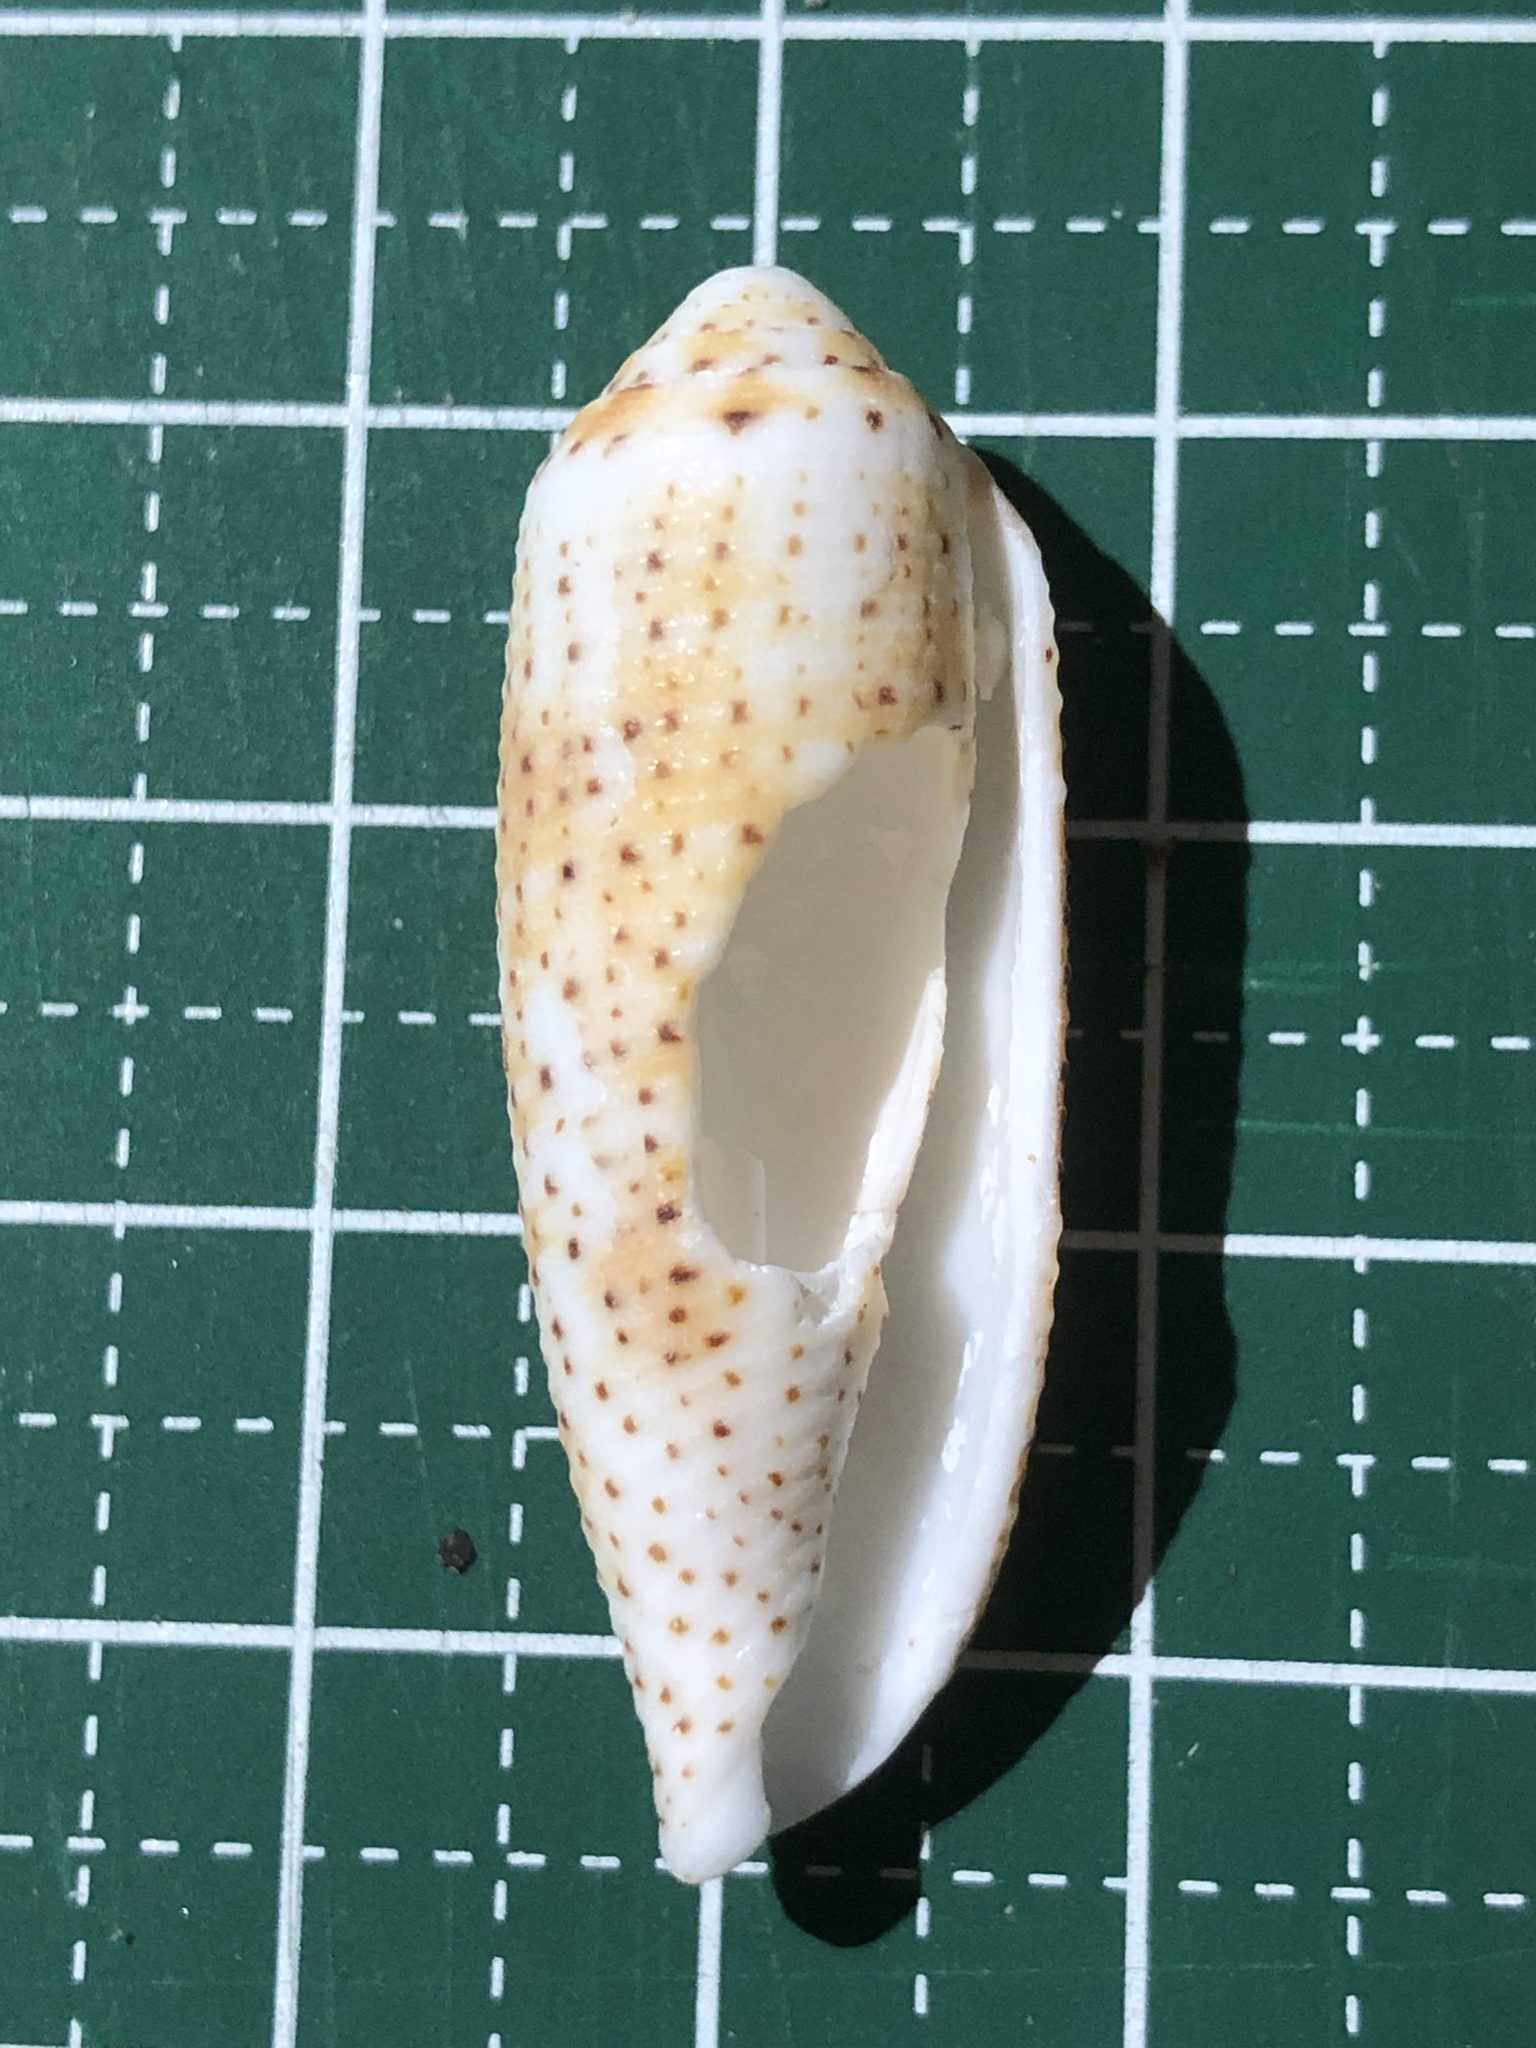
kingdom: Animalia
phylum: Mollusca
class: Gastropoda
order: Neogastropoda
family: Conidae
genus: Conus
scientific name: Conus nussatella
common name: Nussatella cone
